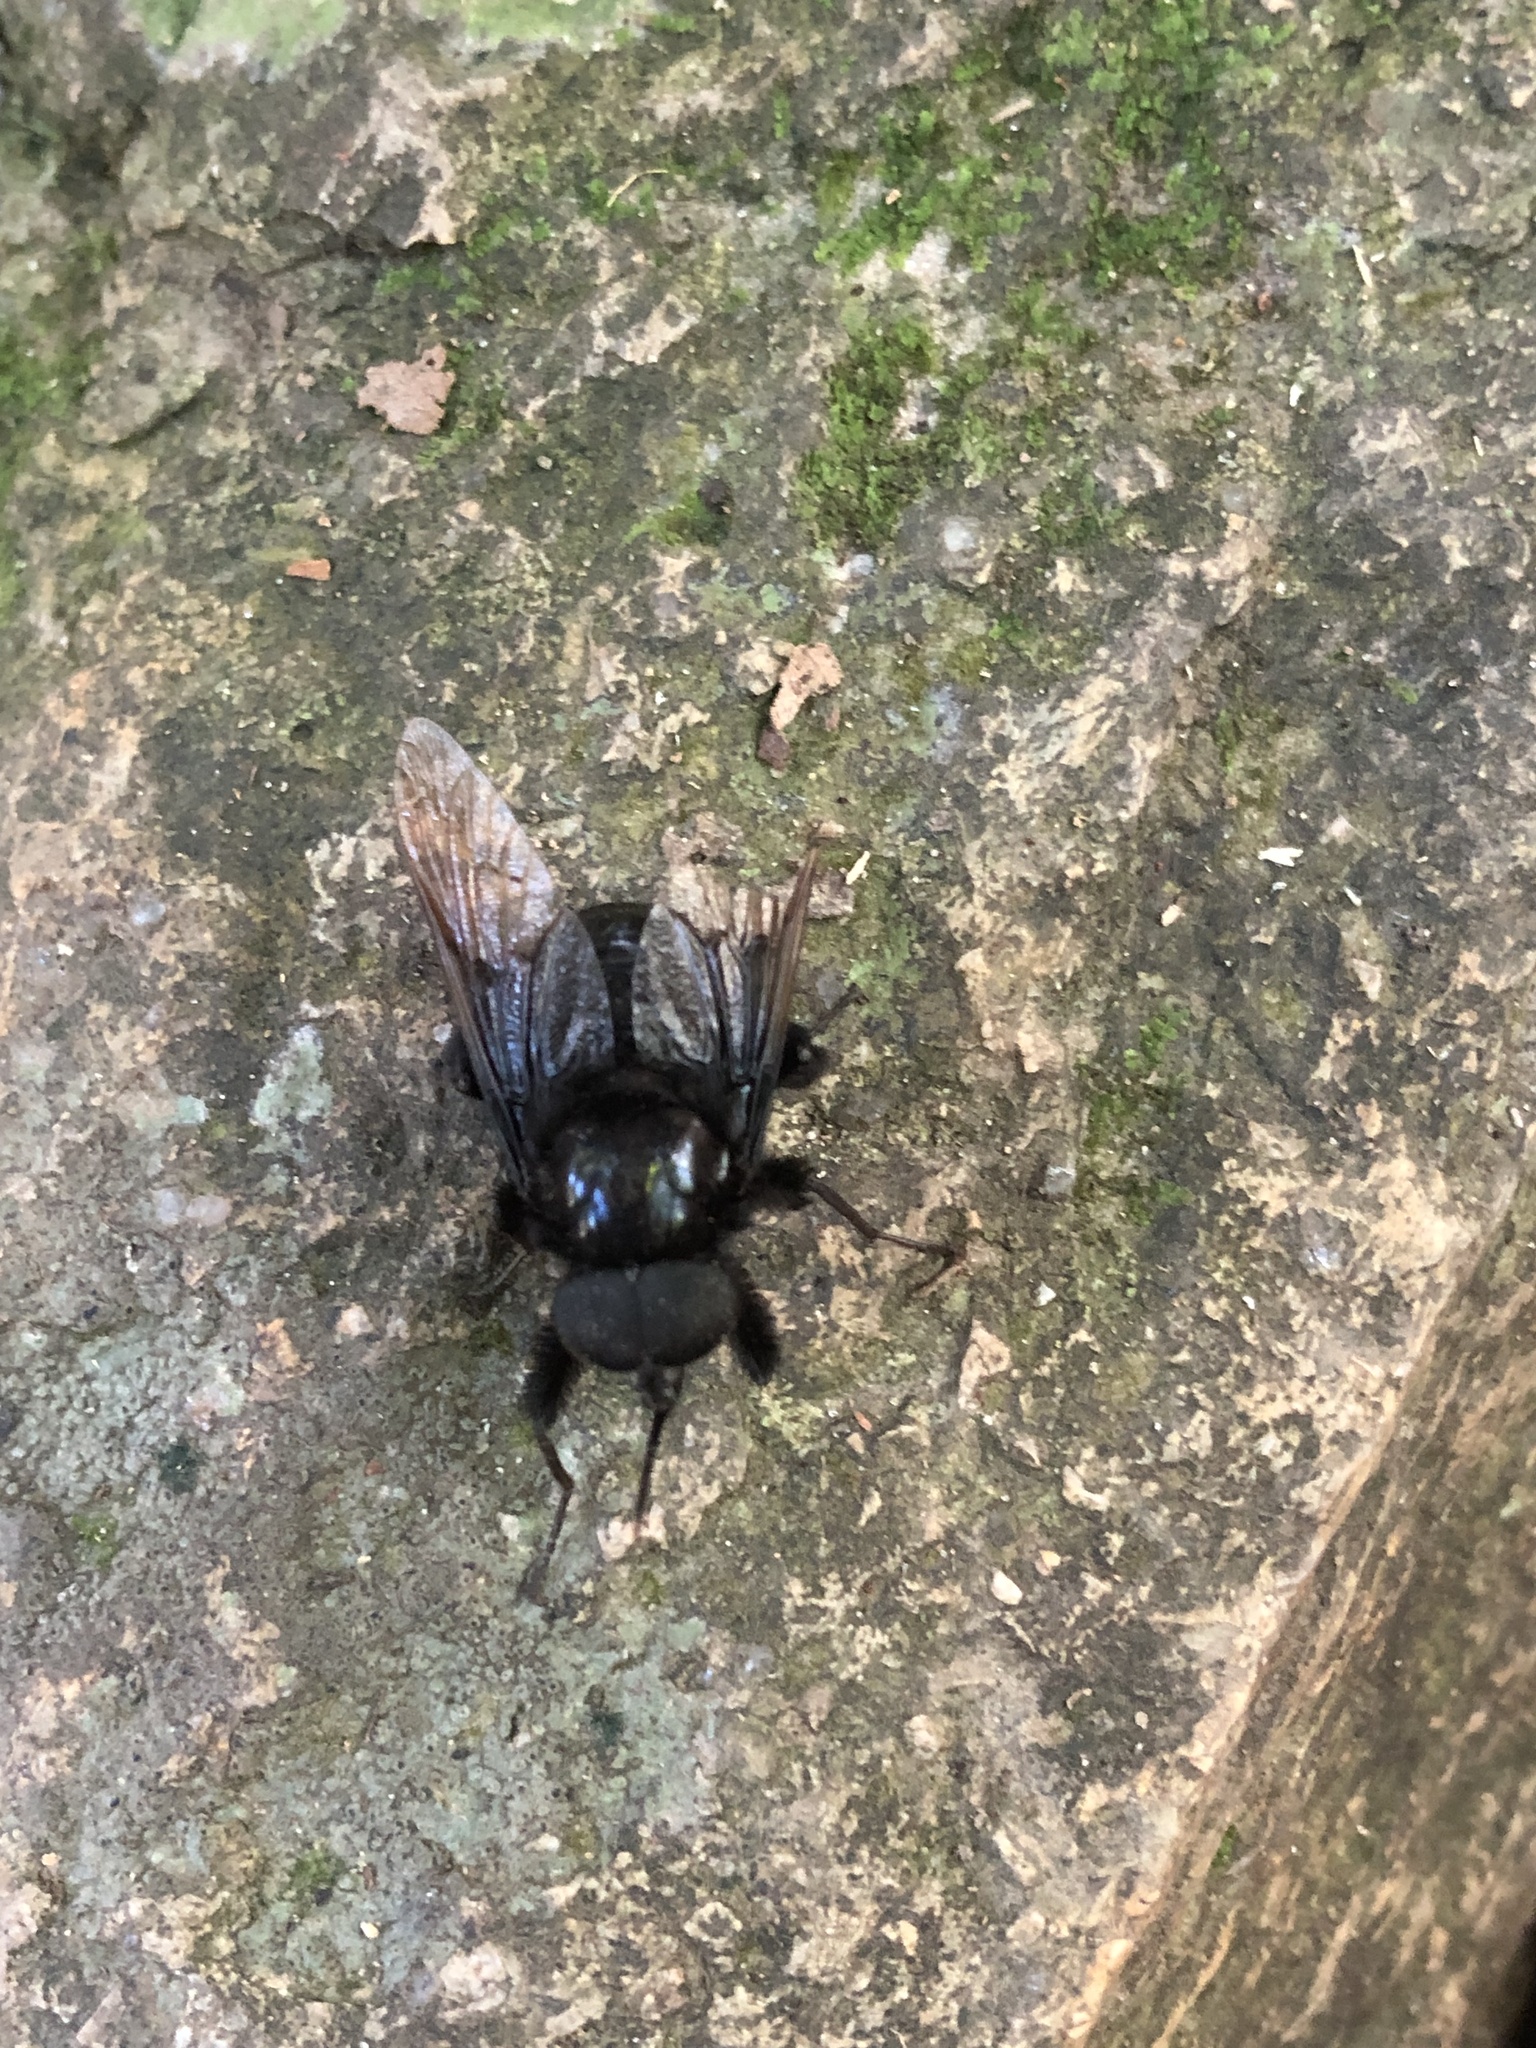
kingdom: Animalia
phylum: Arthropoda
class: Insecta
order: Diptera
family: Tabanidae
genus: Fidena
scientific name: Fidena mirabilis
